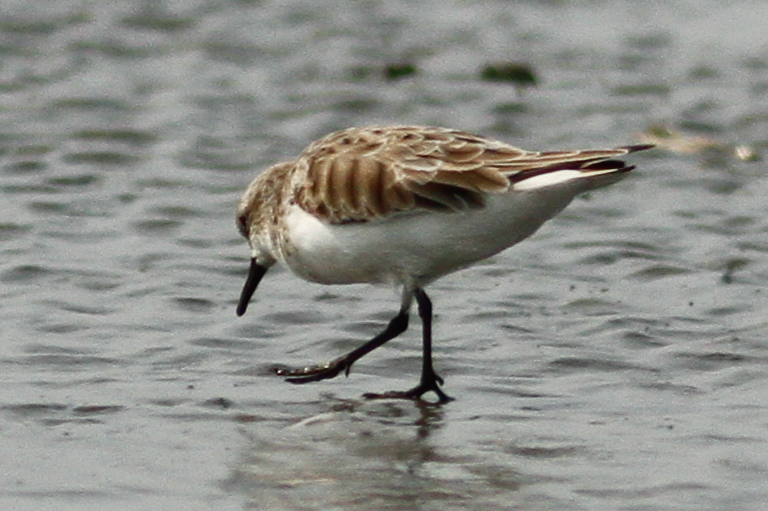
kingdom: Animalia
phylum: Chordata
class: Aves
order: Charadriiformes
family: Scolopacidae
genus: Calidris
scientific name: Calidris ruficollis
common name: Red-necked stint
